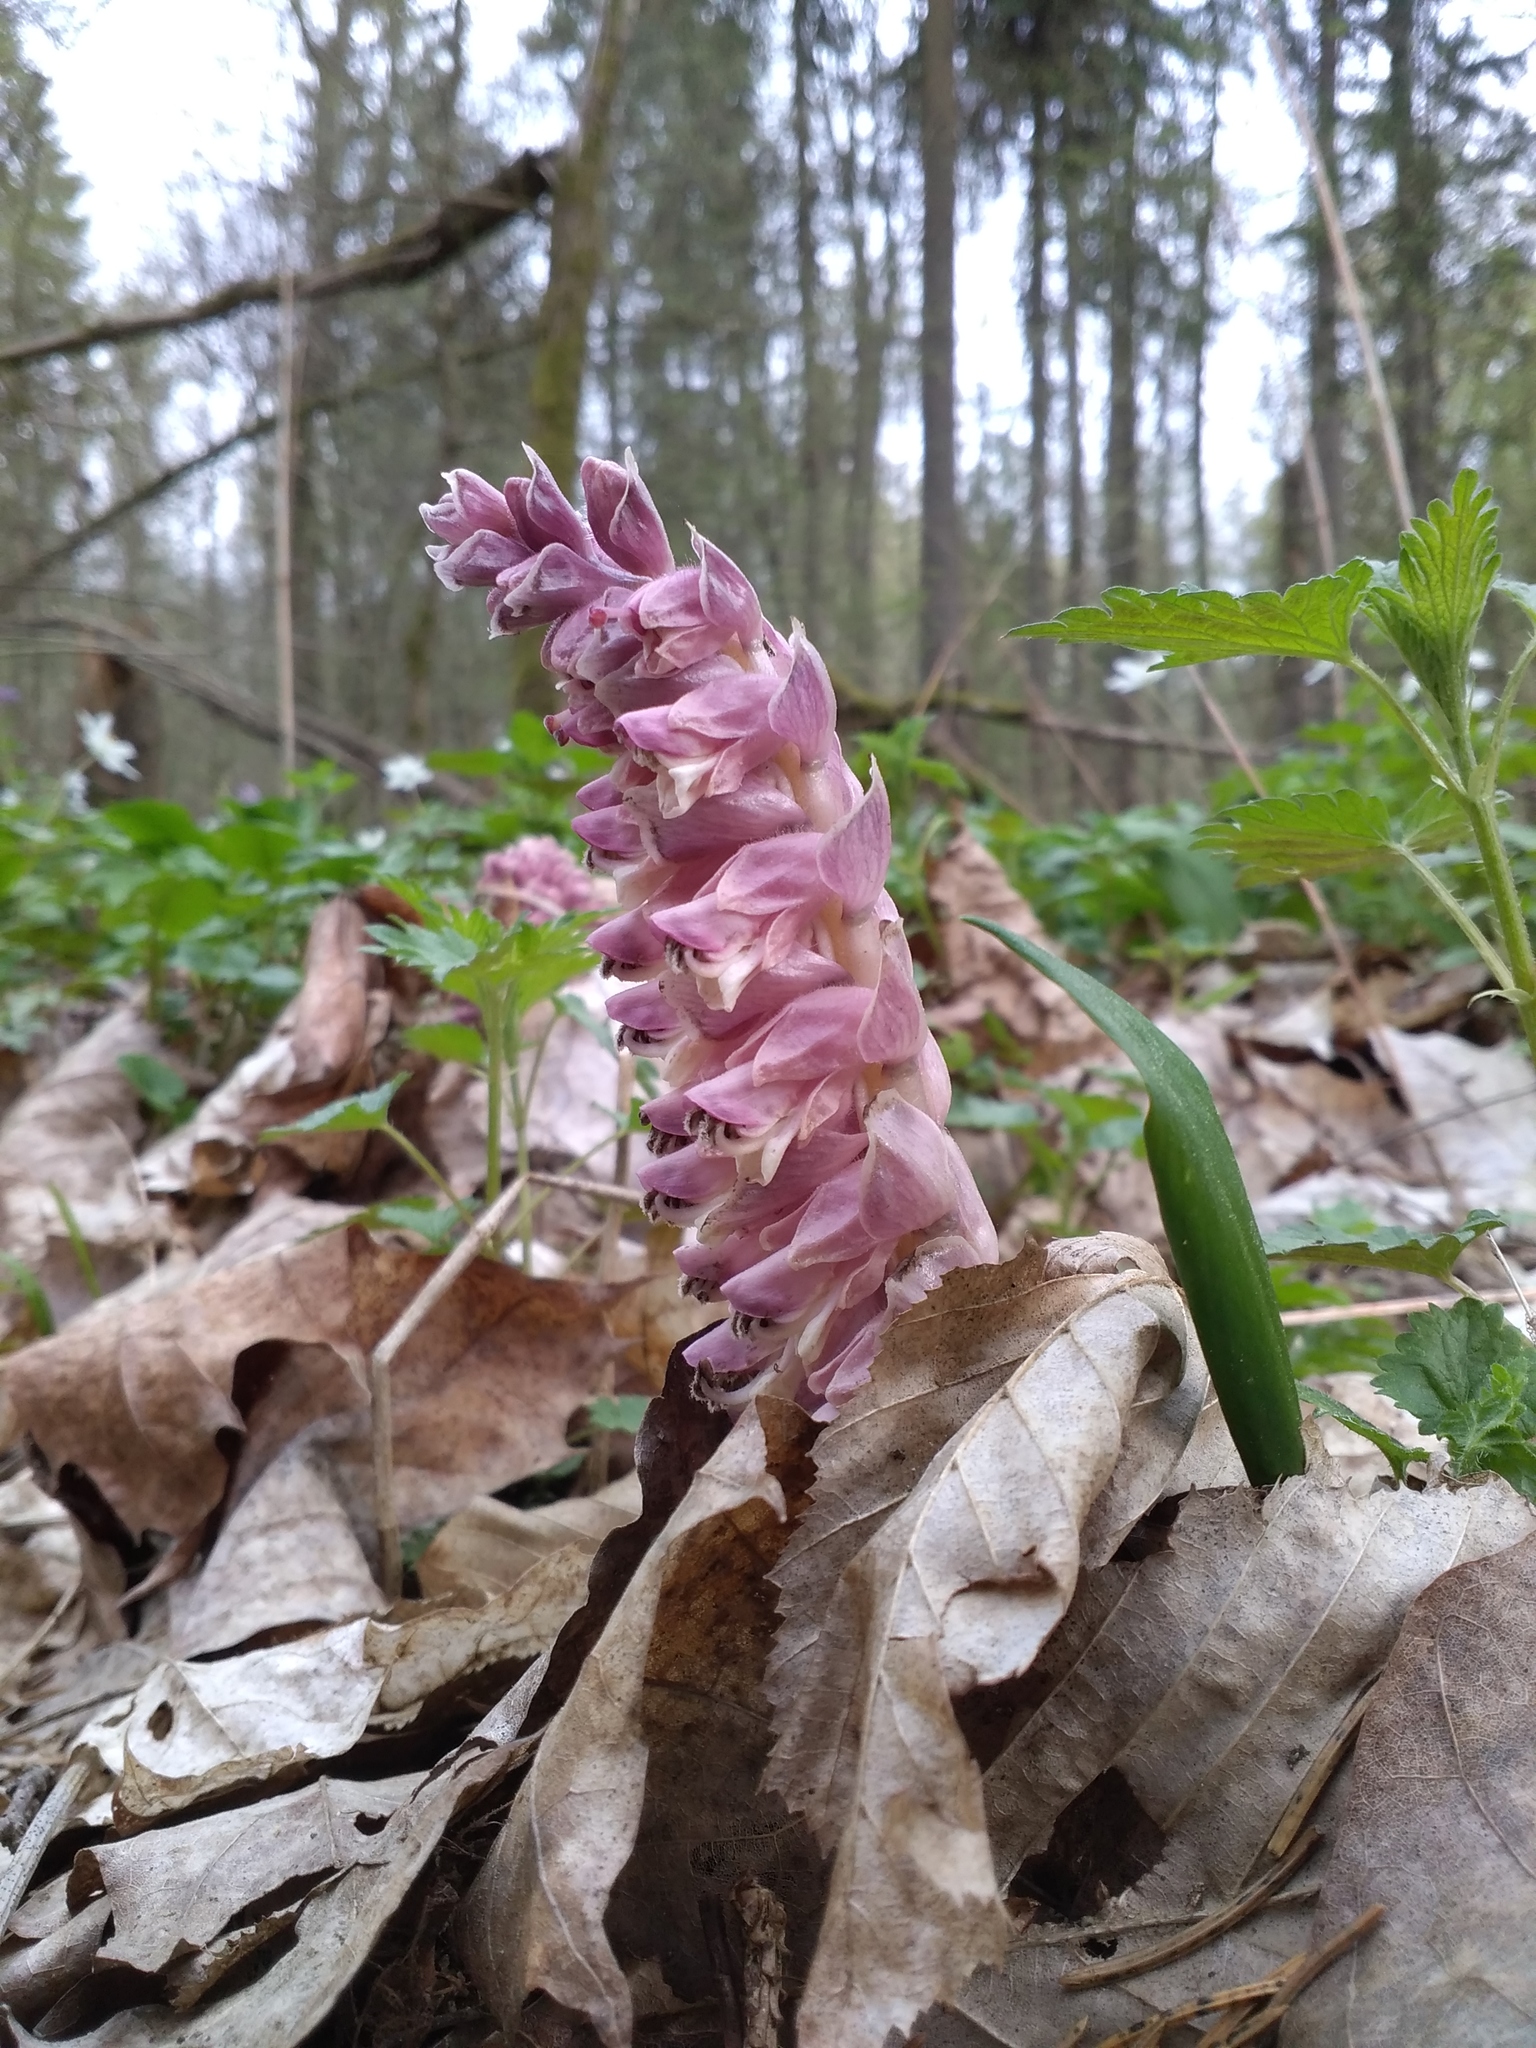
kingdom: Plantae
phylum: Tracheophyta
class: Magnoliopsida
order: Lamiales
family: Orobanchaceae
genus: Lathraea
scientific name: Lathraea squamaria
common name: Toothwort
